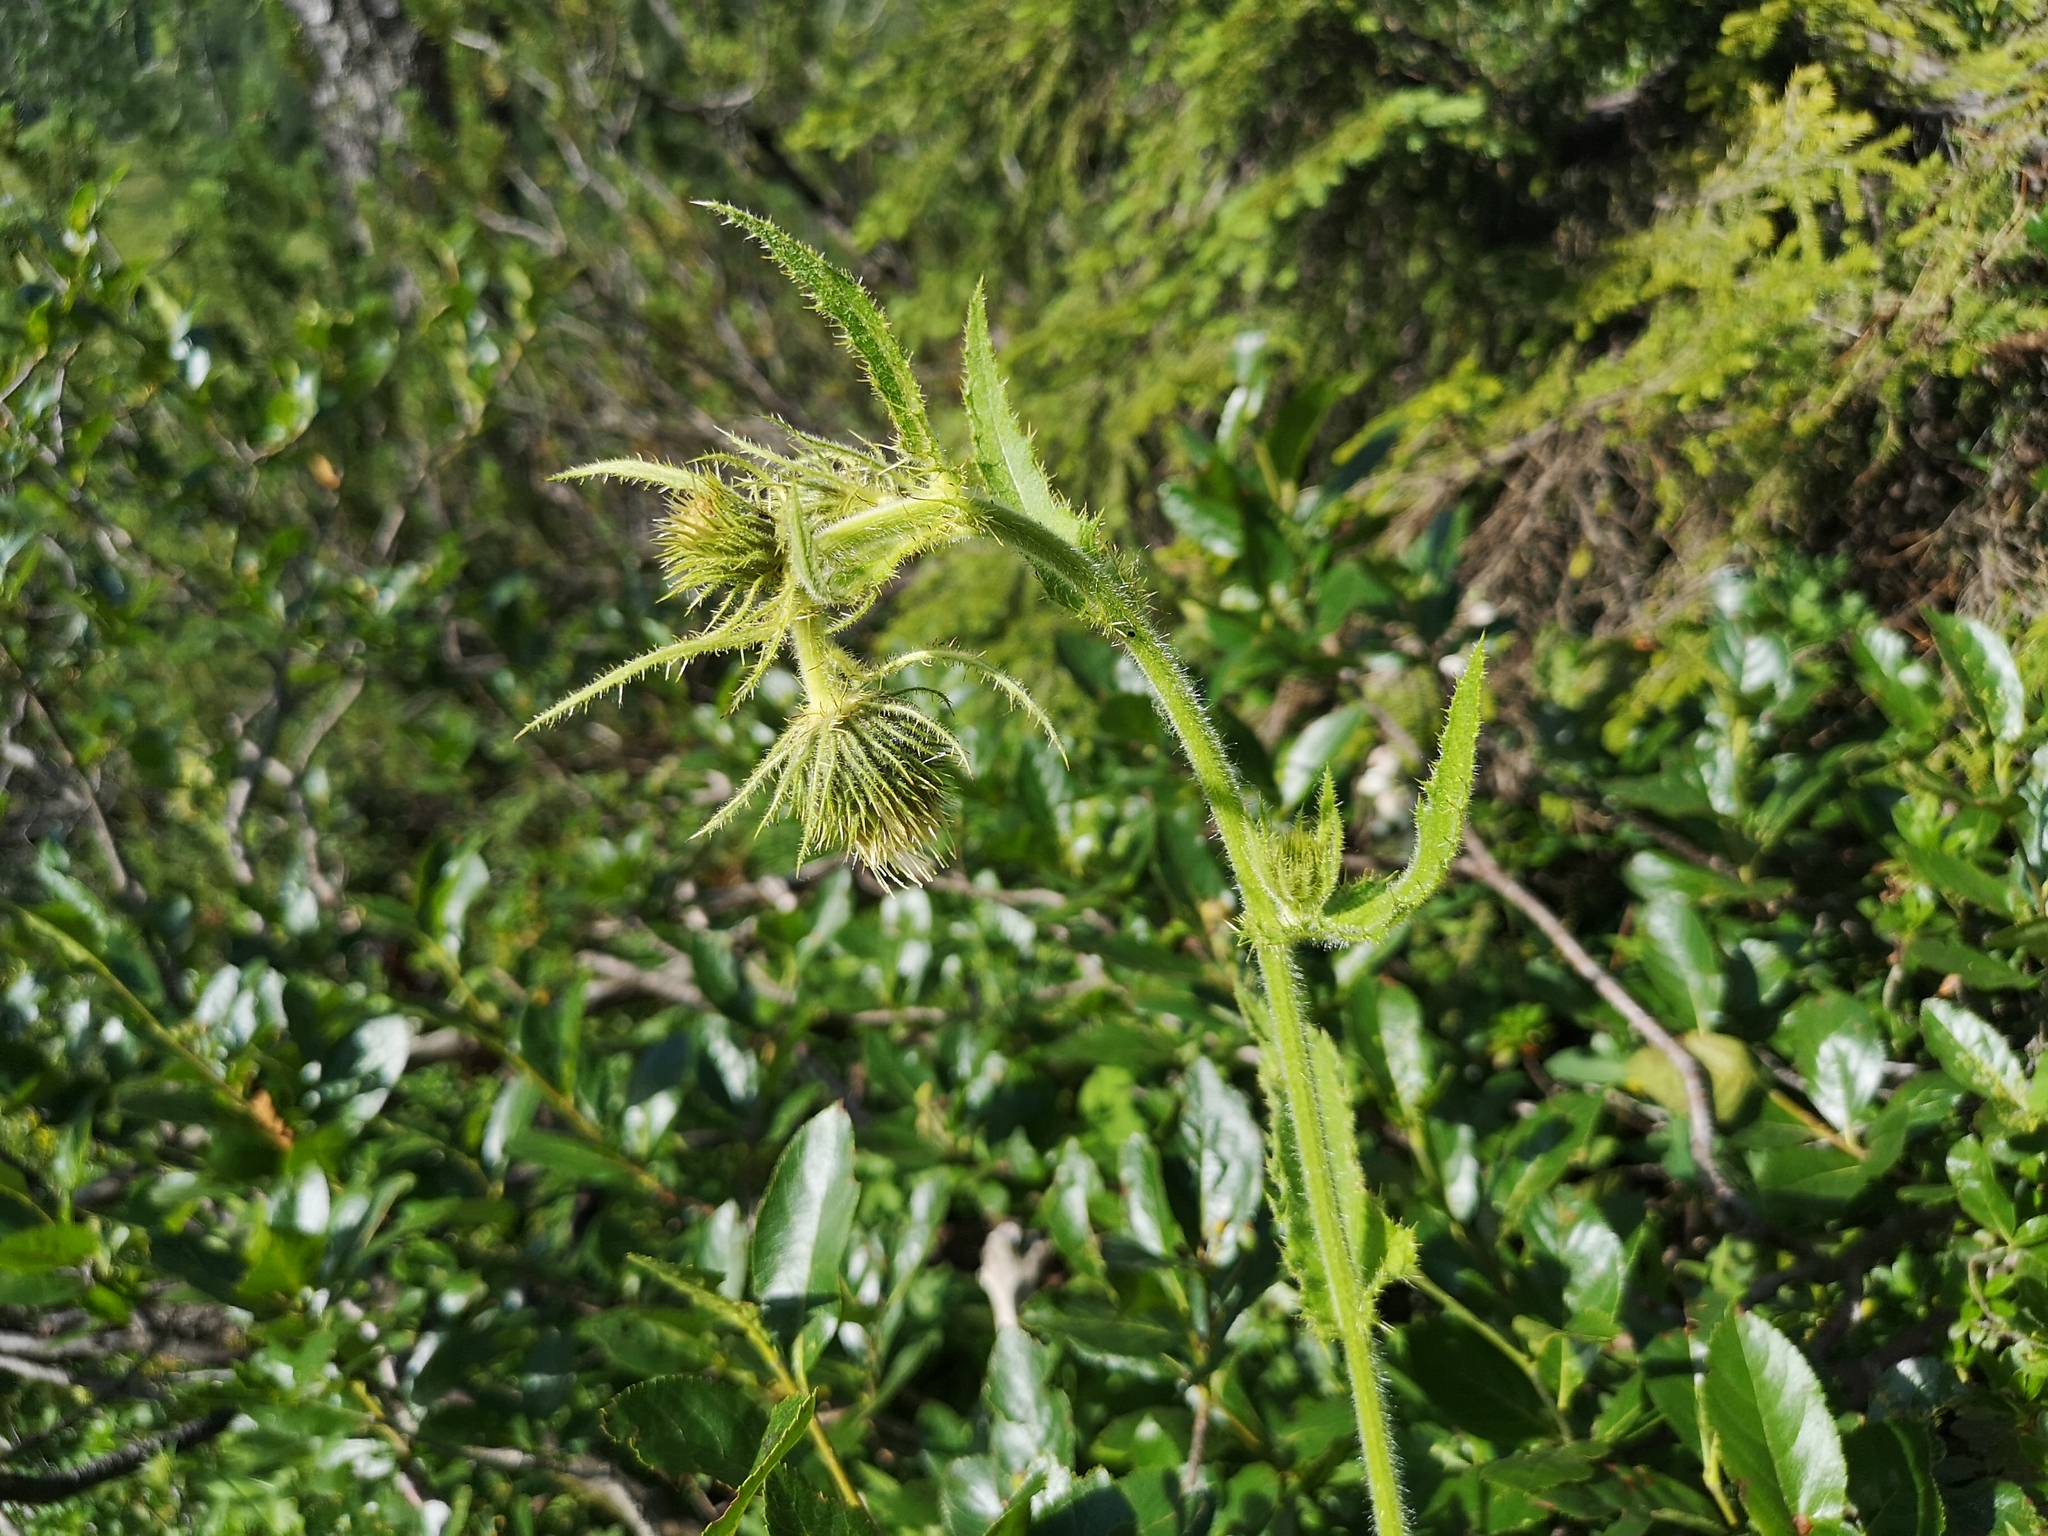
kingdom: Plantae
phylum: Tracheophyta
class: Magnoliopsida
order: Asterales
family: Asteraceae
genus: Cirsium
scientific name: Cirsium erisithales
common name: Yellow thistle
